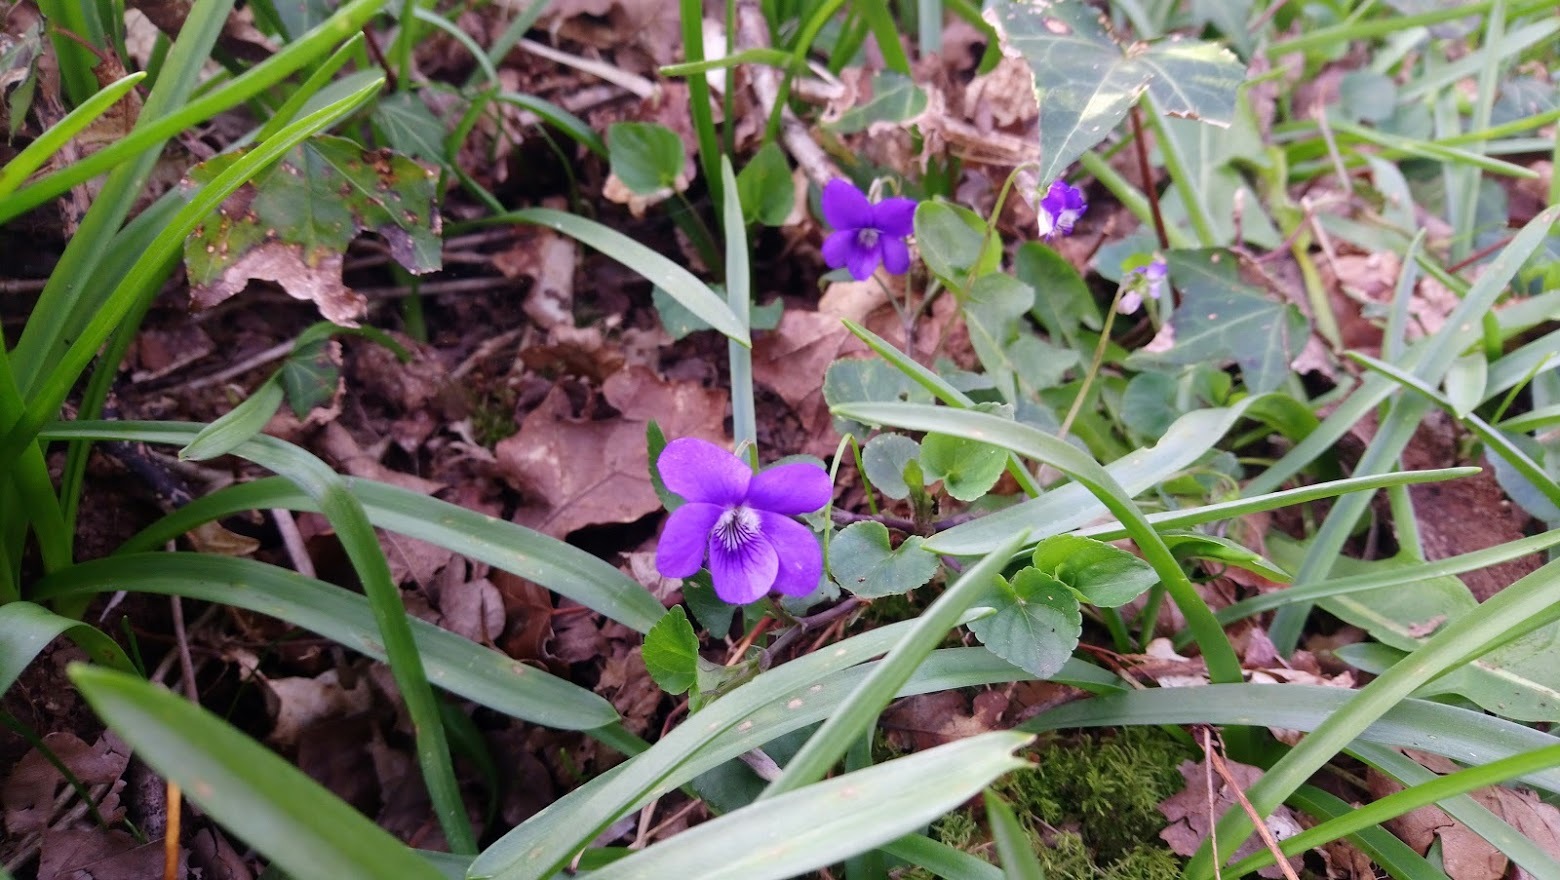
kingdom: Plantae
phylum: Tracheophyta
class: Magnoliopsida
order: Malpighiales
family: Violaceae
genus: Viola
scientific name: Viola odorata
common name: Sweet violet
